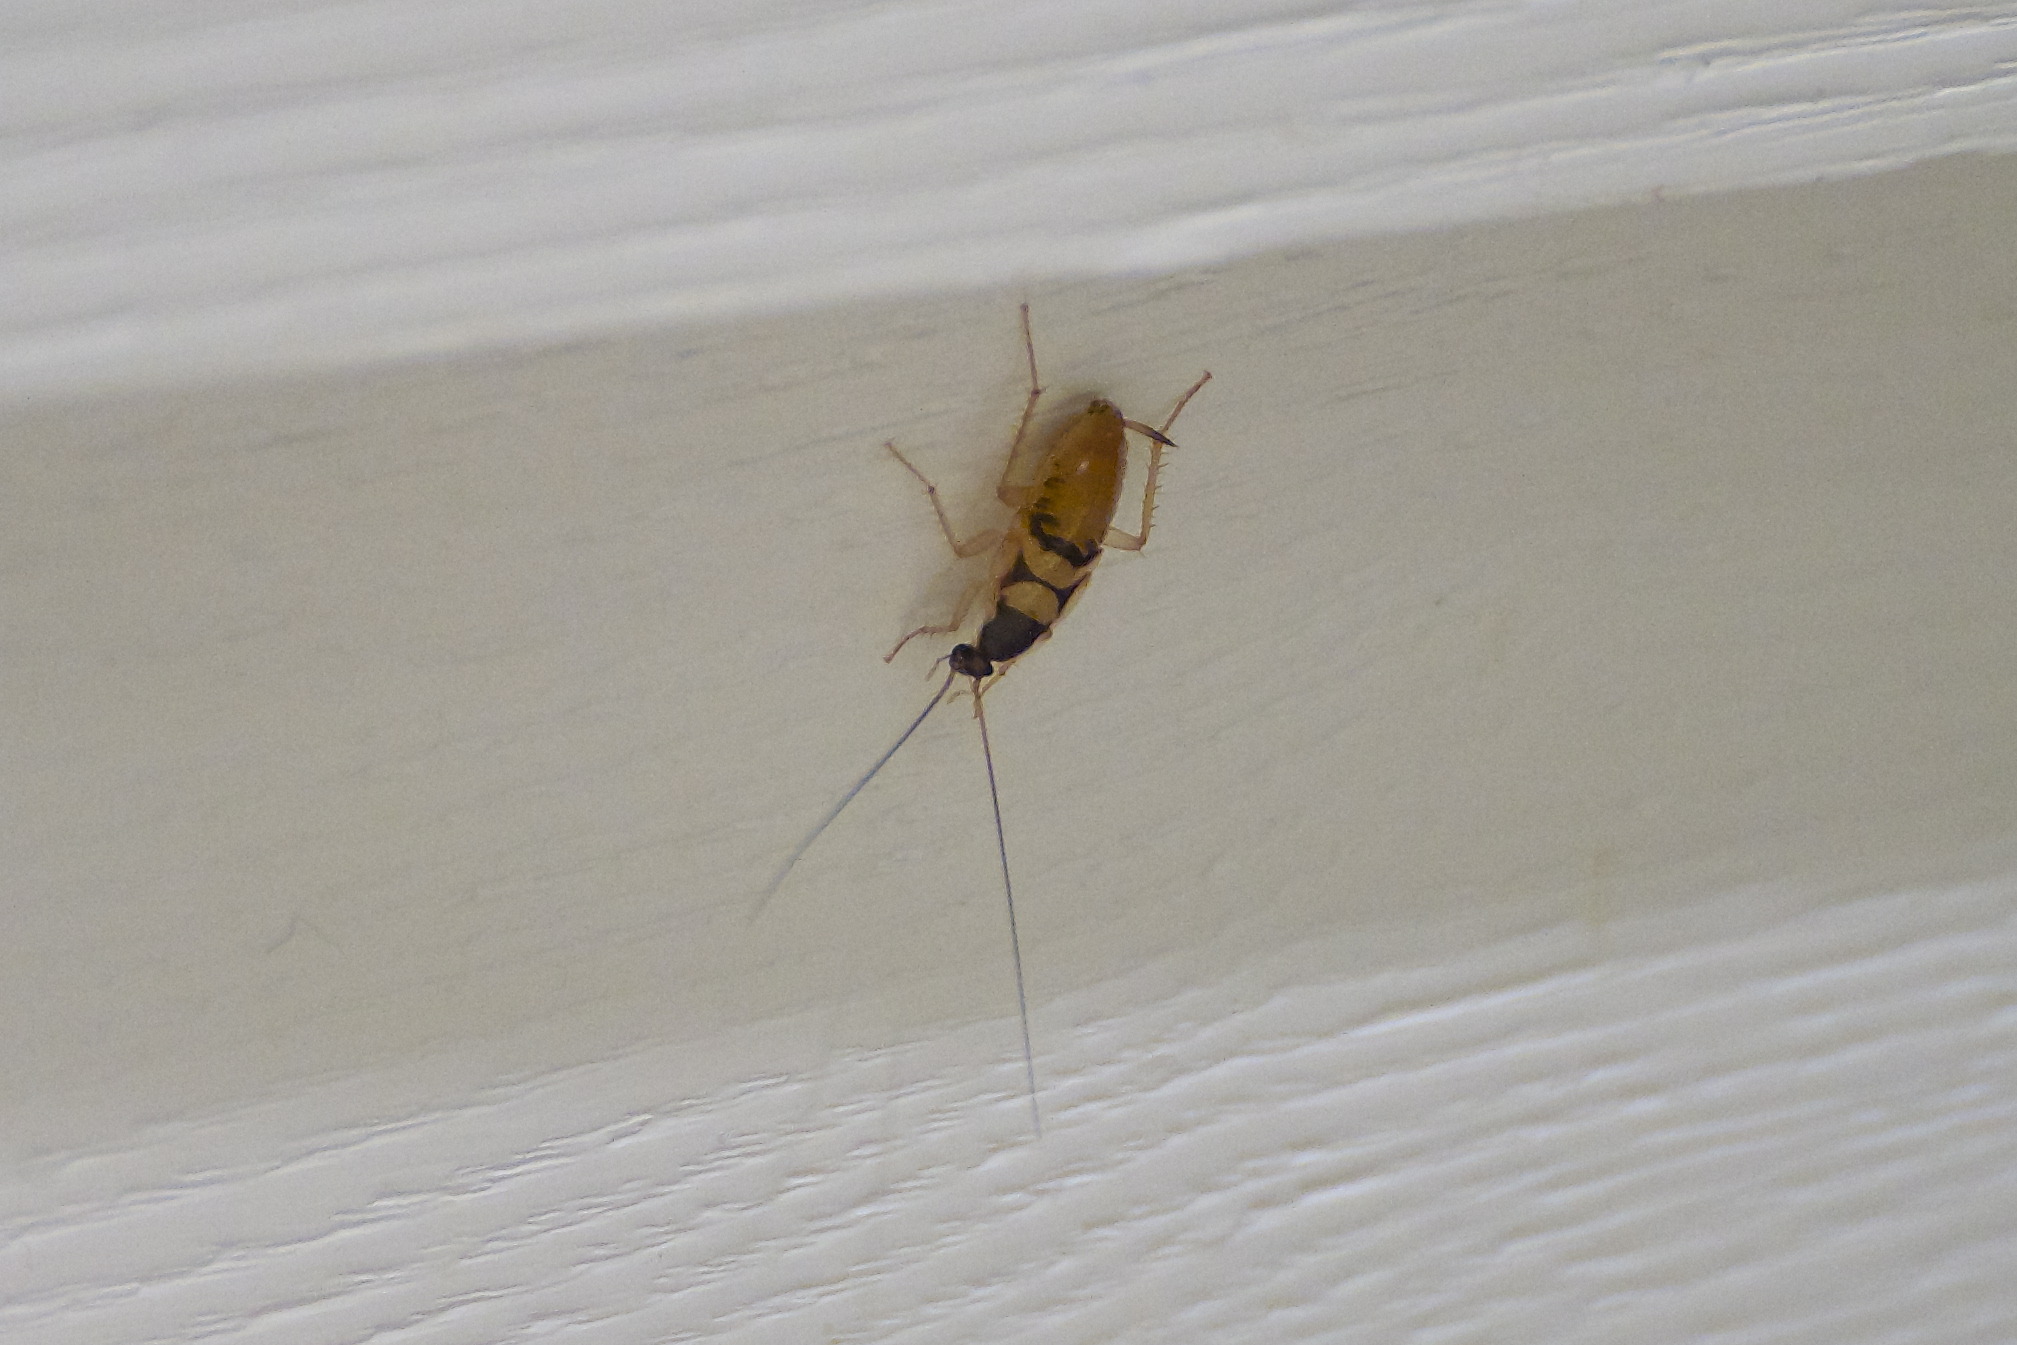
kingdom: Animalia
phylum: Arthropoda
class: Insecta
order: Blattodea
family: Ectobiidae
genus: Supella
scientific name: Supella longipalpa
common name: Brown-banded cockroach
